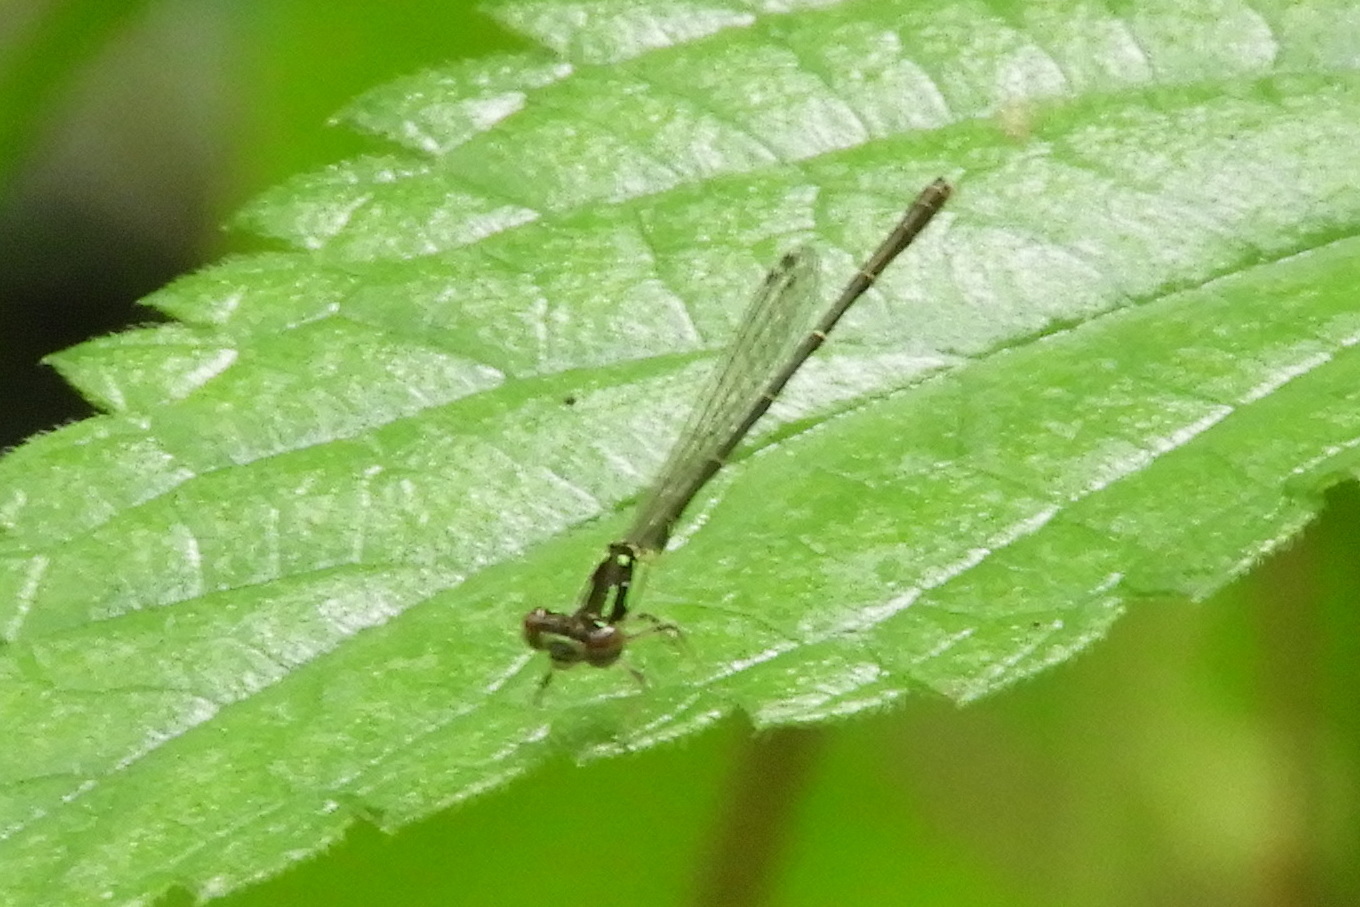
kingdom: Animalia
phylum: Arthropoda
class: Insecta
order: Odonata
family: Coenagrionidae
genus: Ischnura
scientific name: Ischnura posita
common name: Fragile forktail
